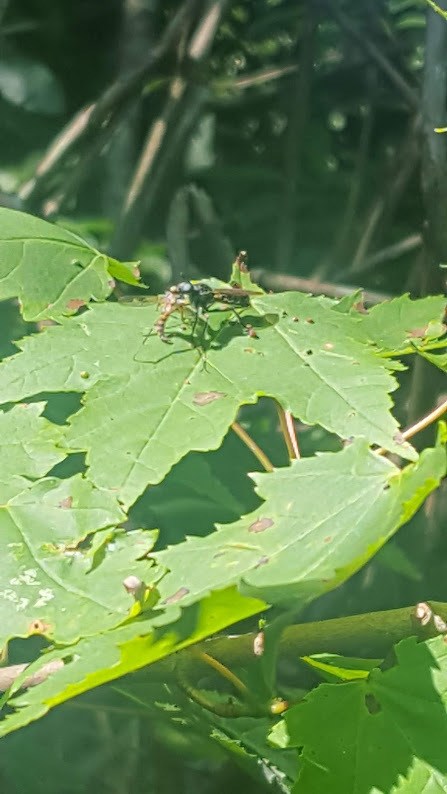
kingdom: Animalia
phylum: Arthropoda
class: Insecta
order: Diptera
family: Asilidae
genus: Laphria
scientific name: Laphria
